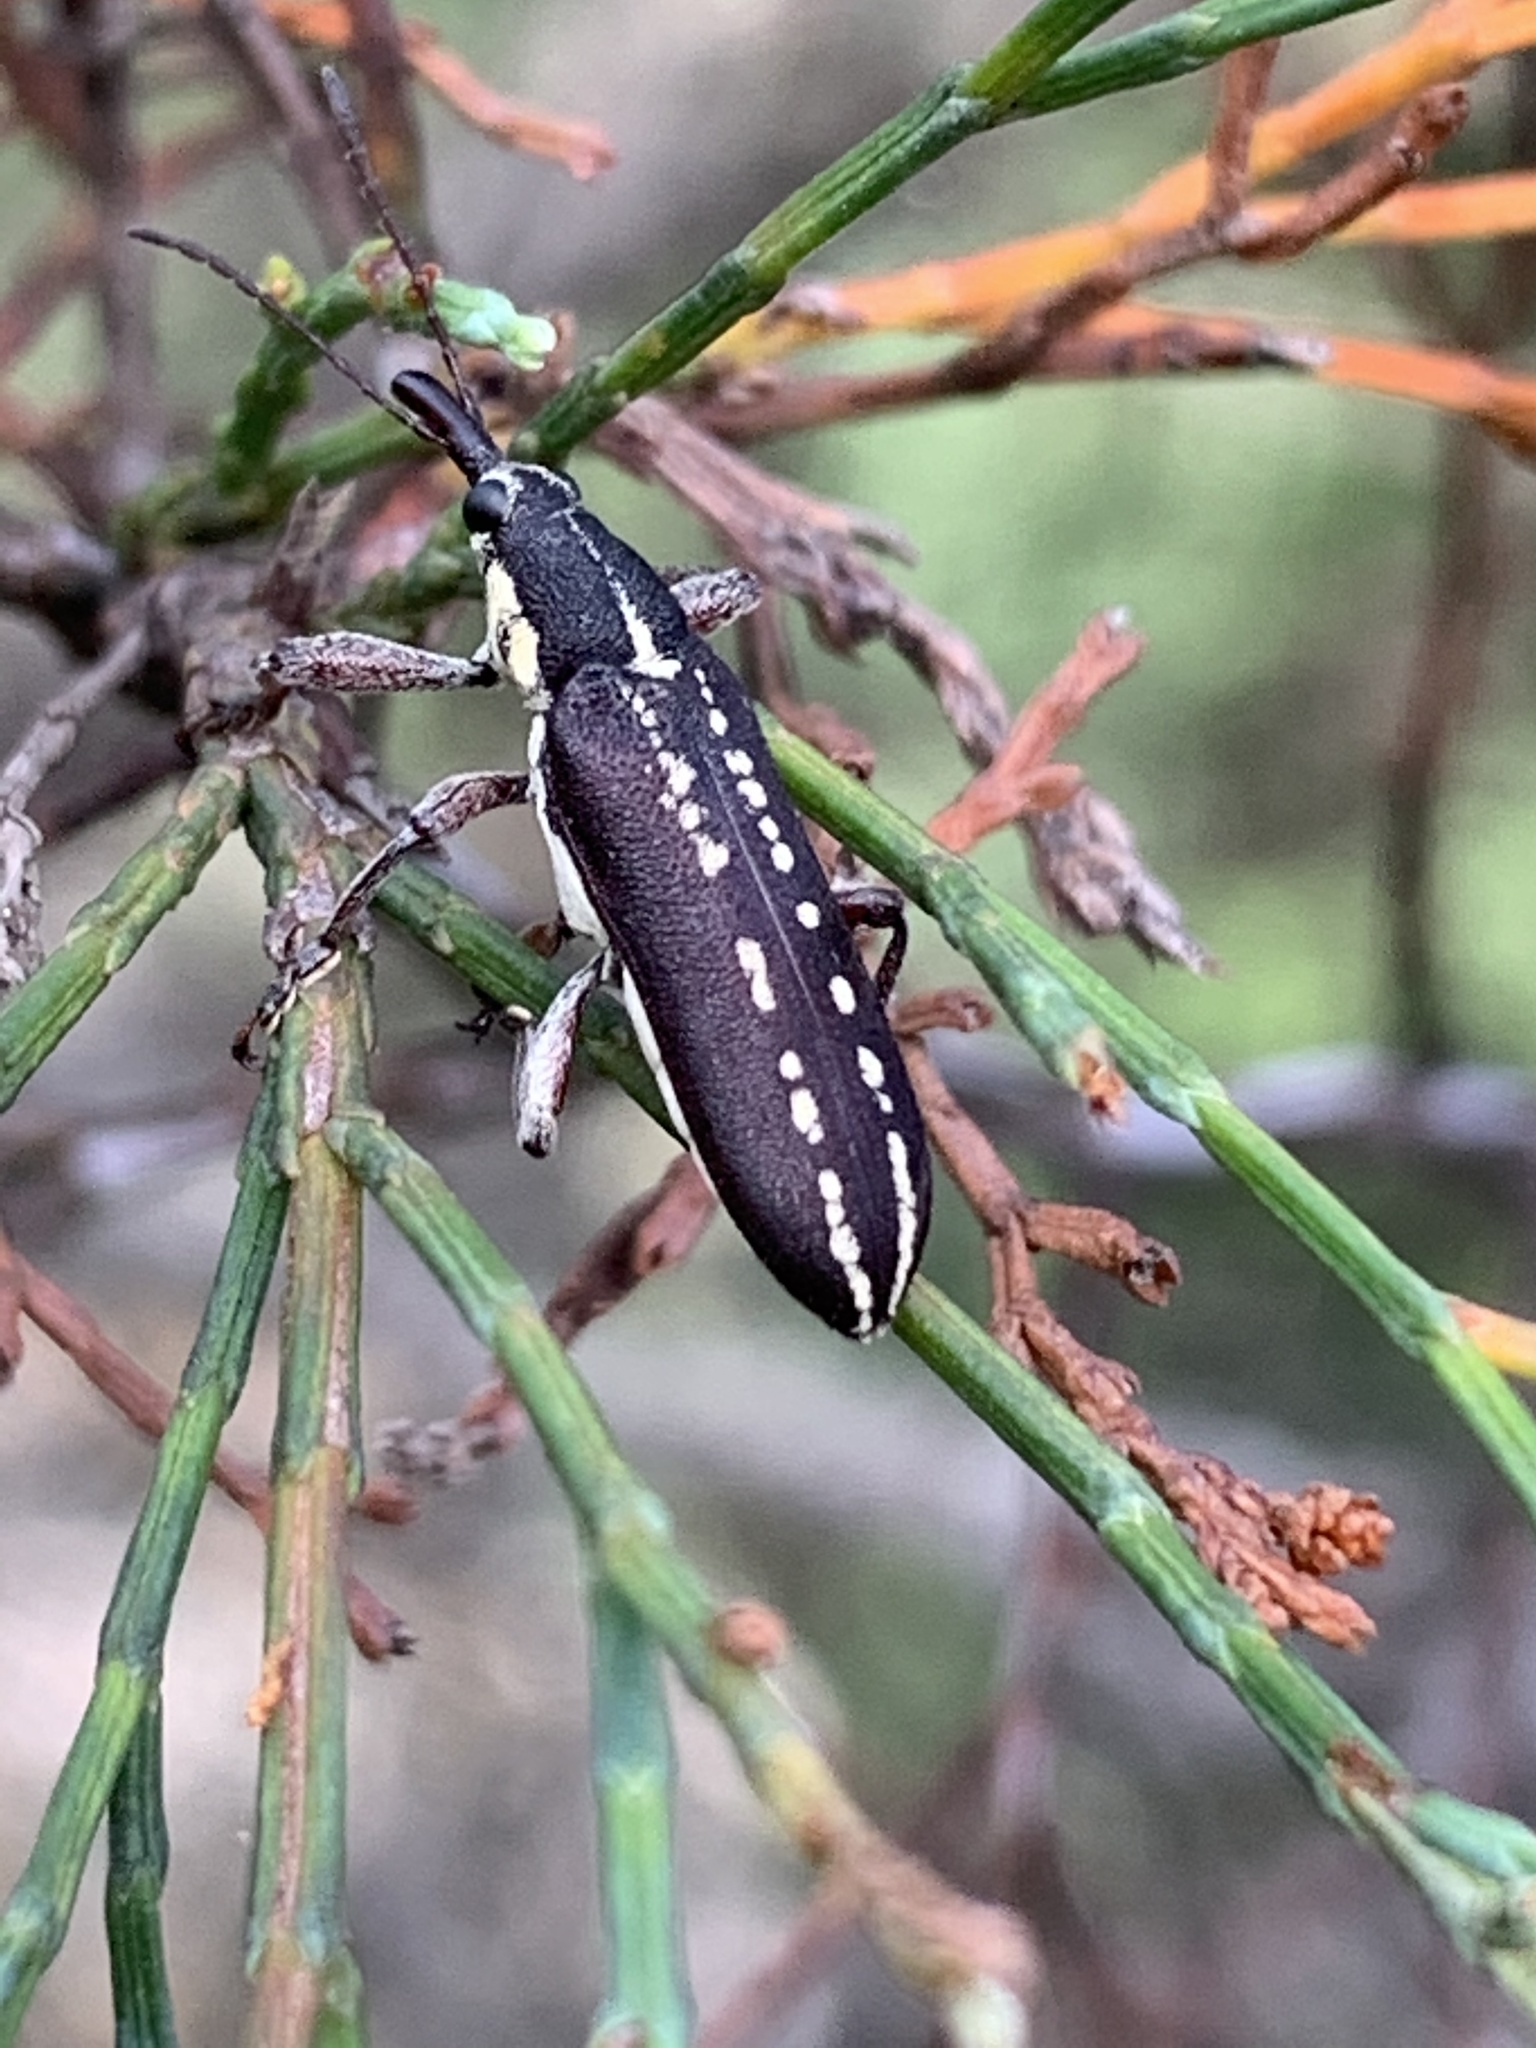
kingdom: Animalia
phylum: Arthropoda
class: Insecta
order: Coleoptera
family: Belidae
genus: Isacanthodes
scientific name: Isacanthodes ganglionica
